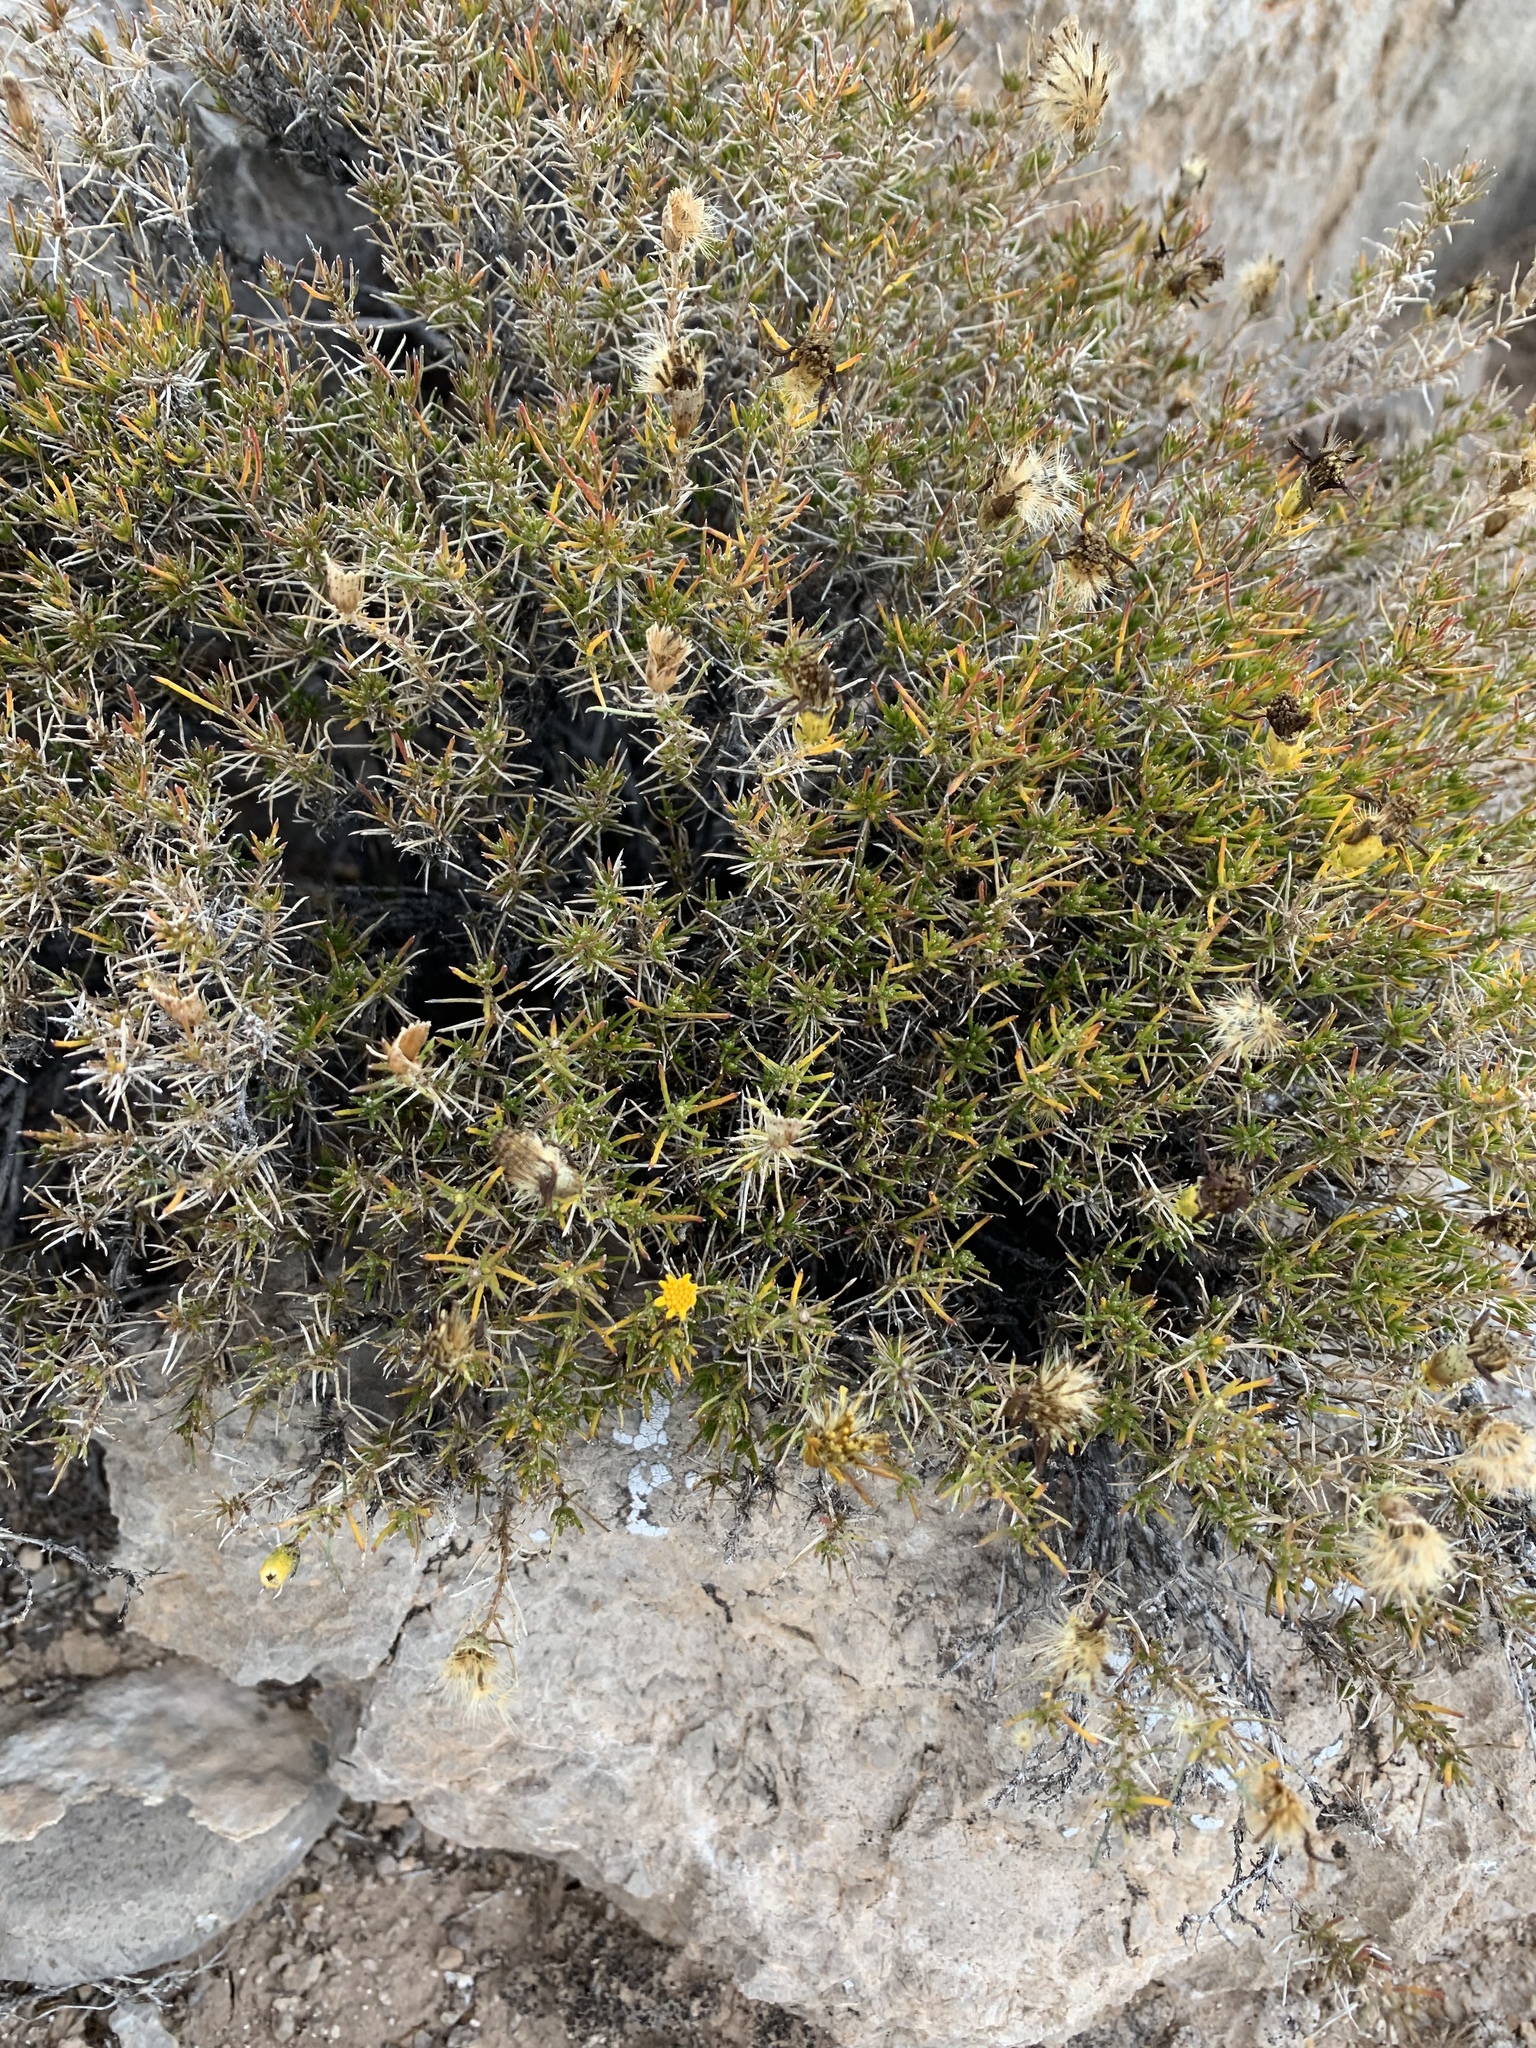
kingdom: Plantae
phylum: Tracheophyta
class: Magnoliopsida
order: Asterales
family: Asteraceae
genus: Thymophylla
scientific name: Thymophylla acerosa
